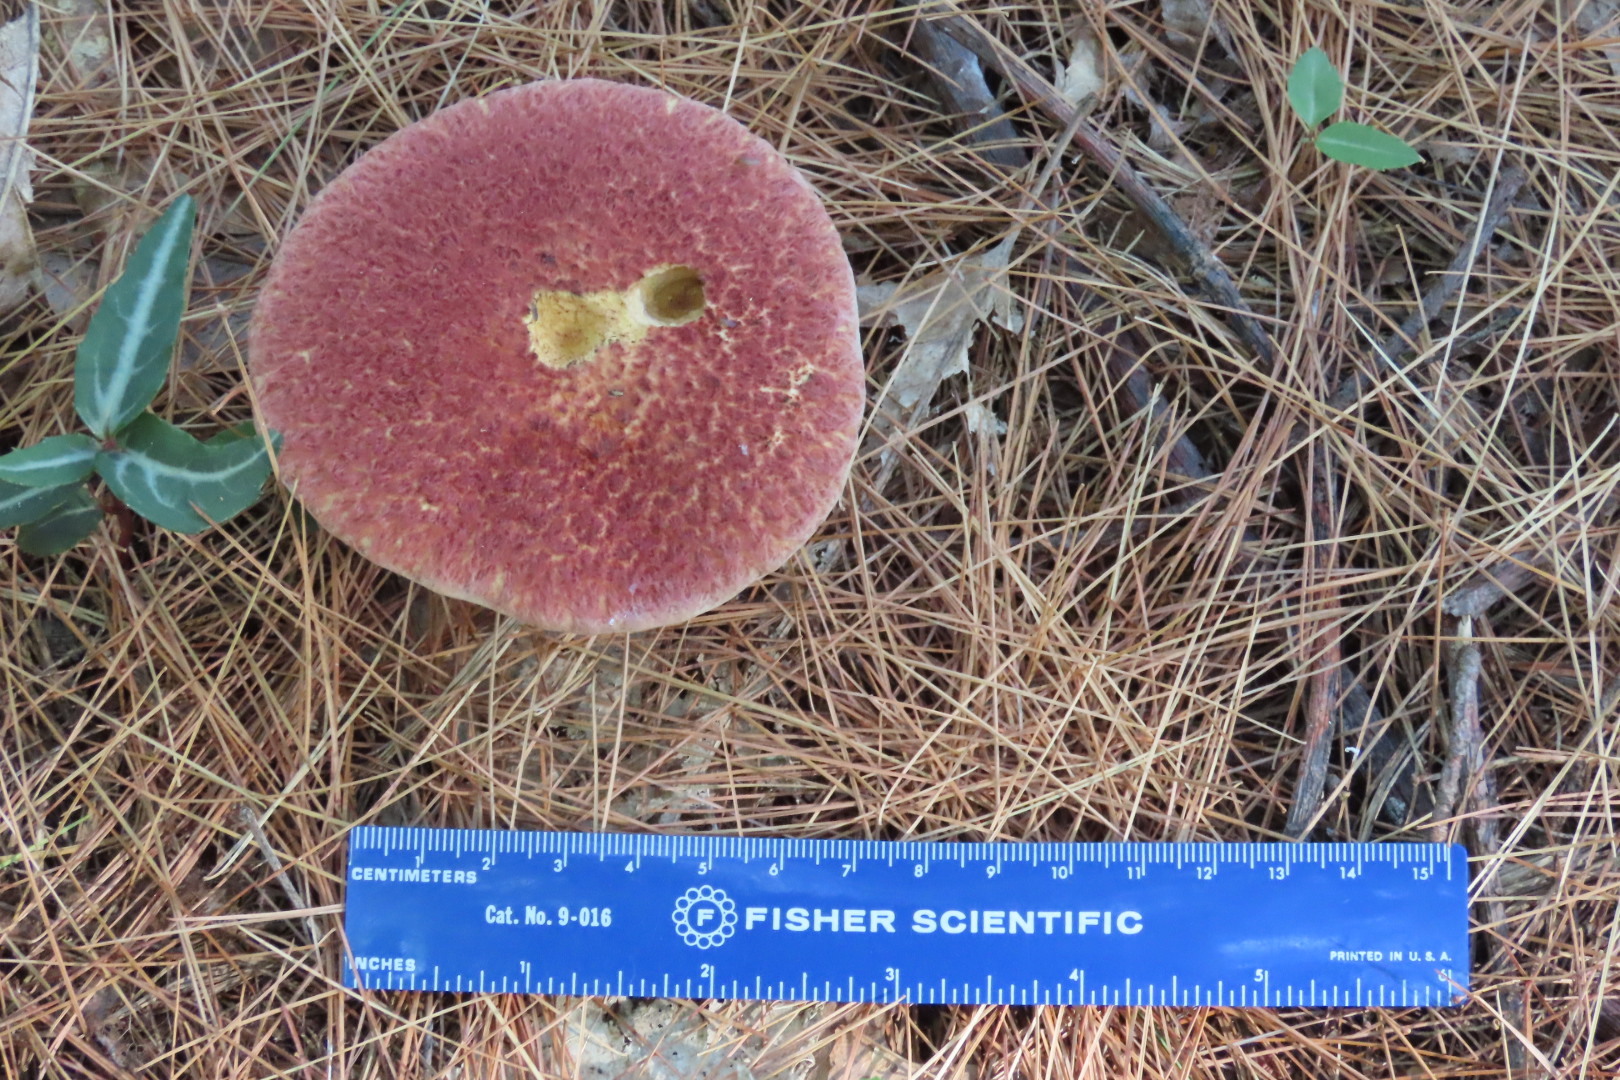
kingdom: Fungi
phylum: Basidiomycota
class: Agaricomycetes
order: Boletales
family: Suillaceae
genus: Suillus
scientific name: Suillus spraguei
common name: Painted suillus
